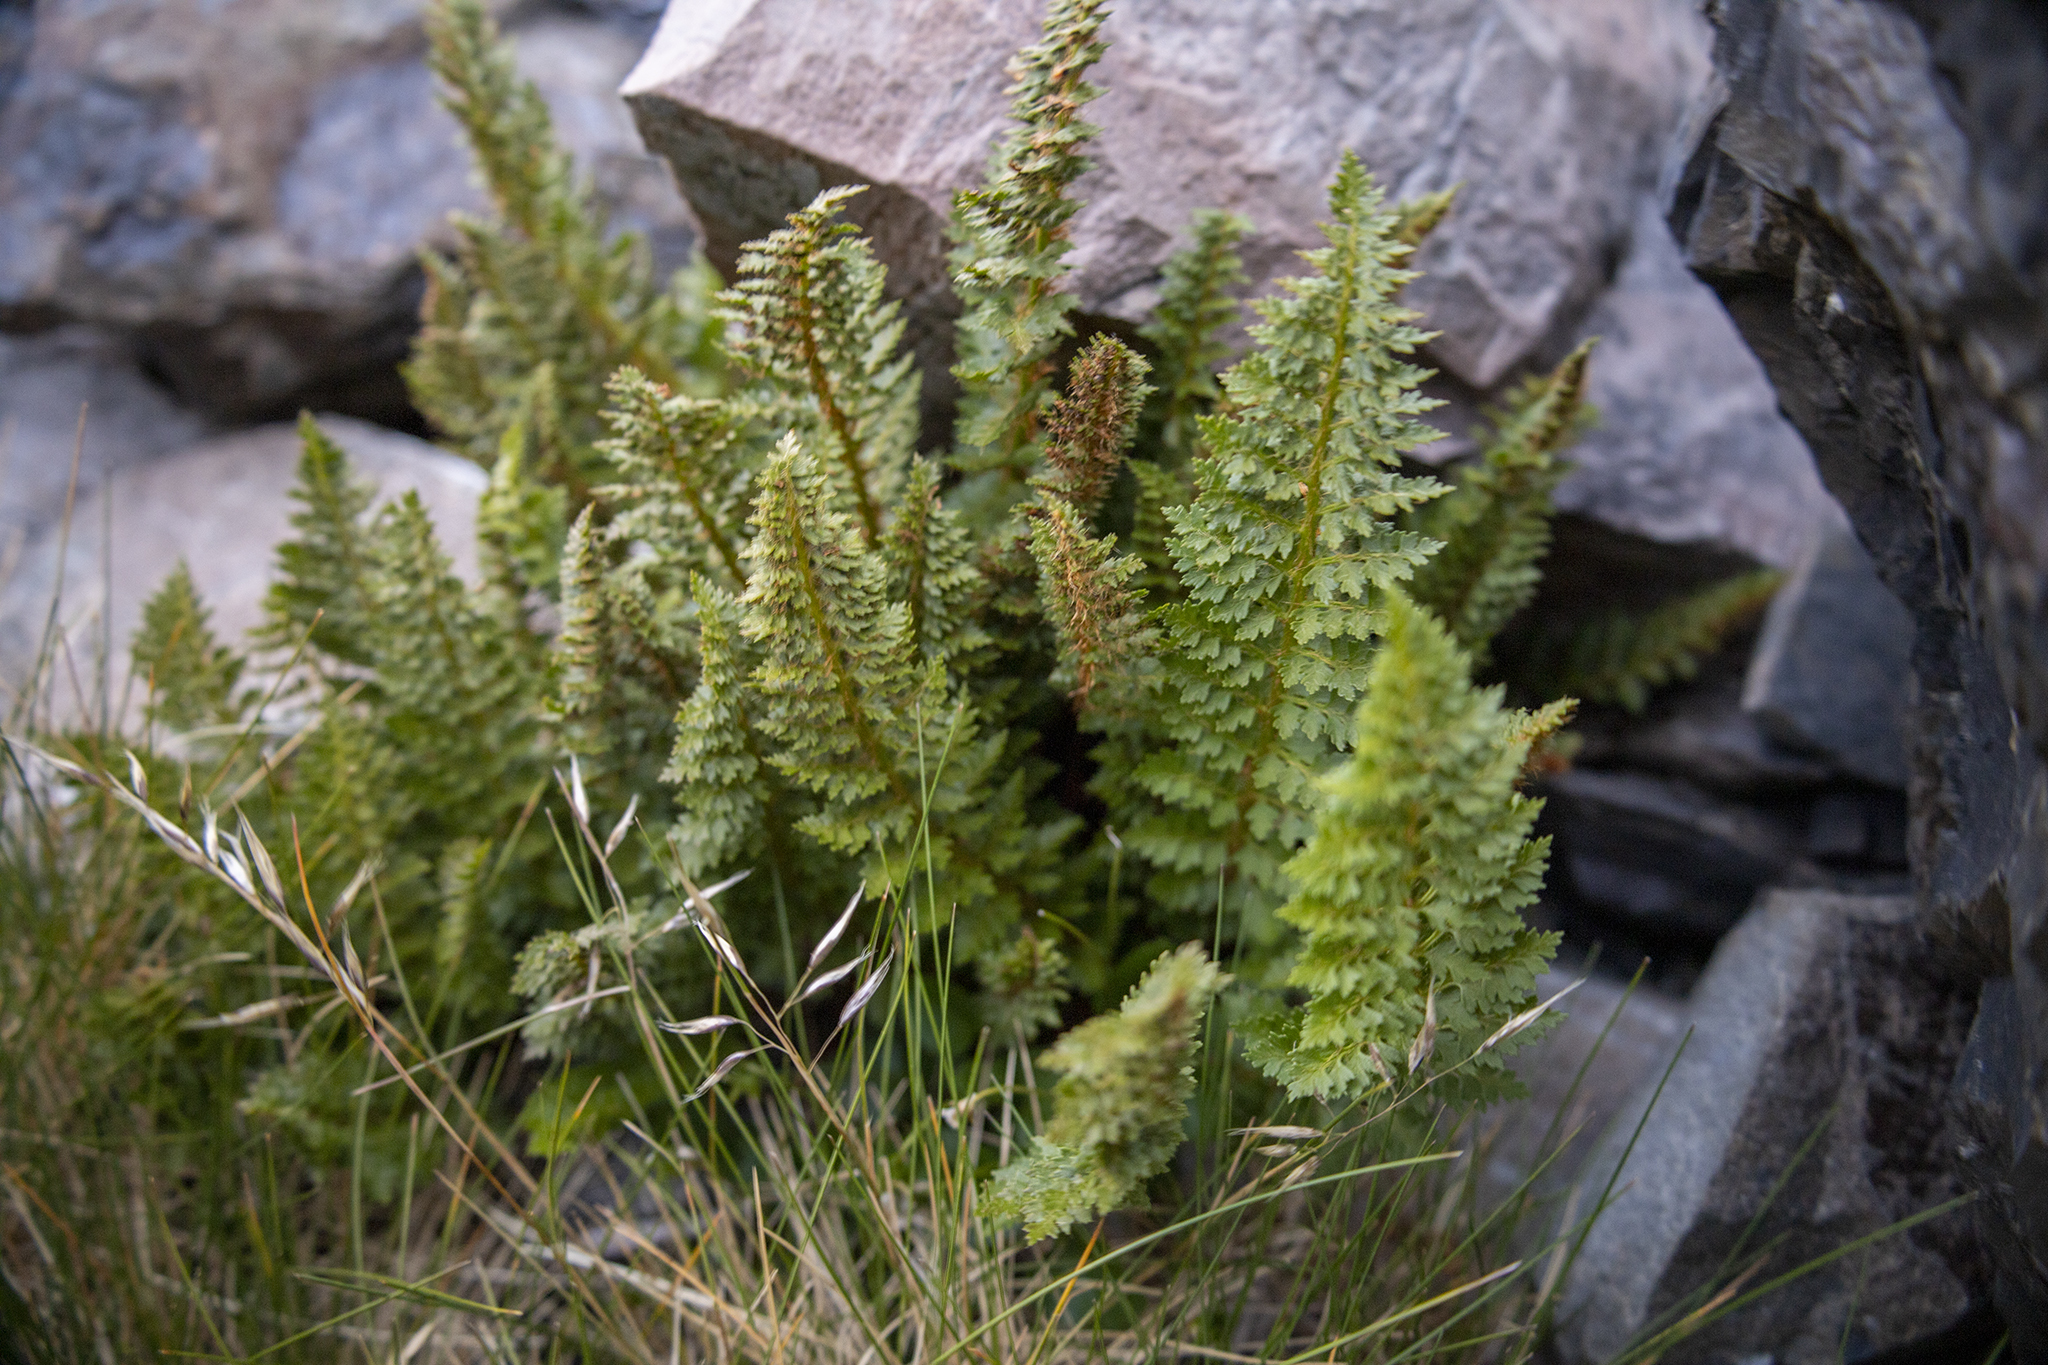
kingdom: Plantae
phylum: Tracheophyta
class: Polypodiopsida
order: Polypodiales
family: Dryopteridaceae
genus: Polystichum
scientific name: Polystichum cystostegia
